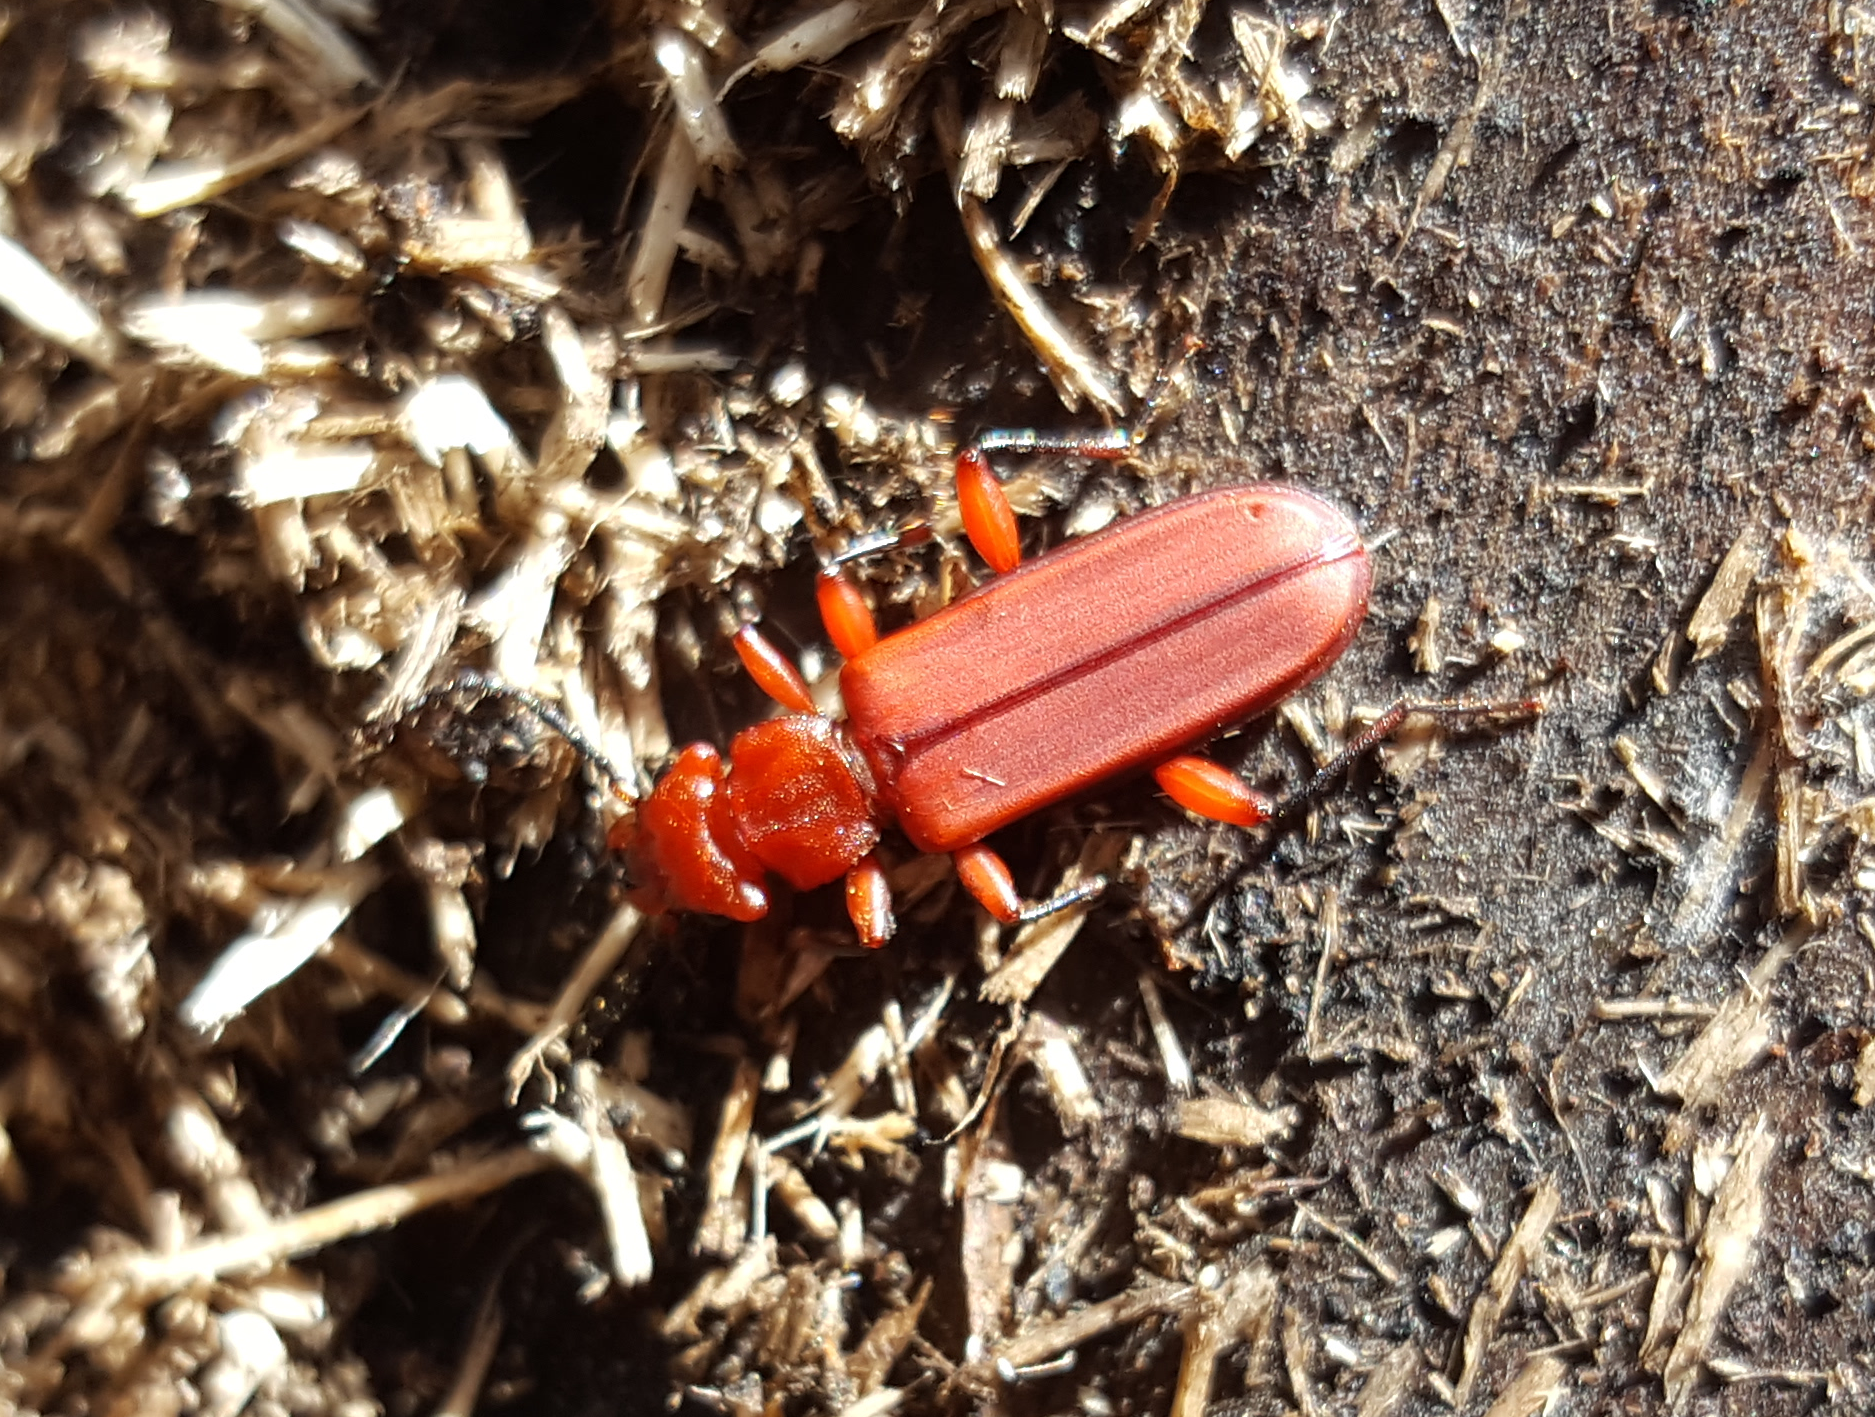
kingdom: Animalia
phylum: Arthropoda
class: Insecta
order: Coleoptera
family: Cucujidae
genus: Cucujus
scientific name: Cucujus clavipes
